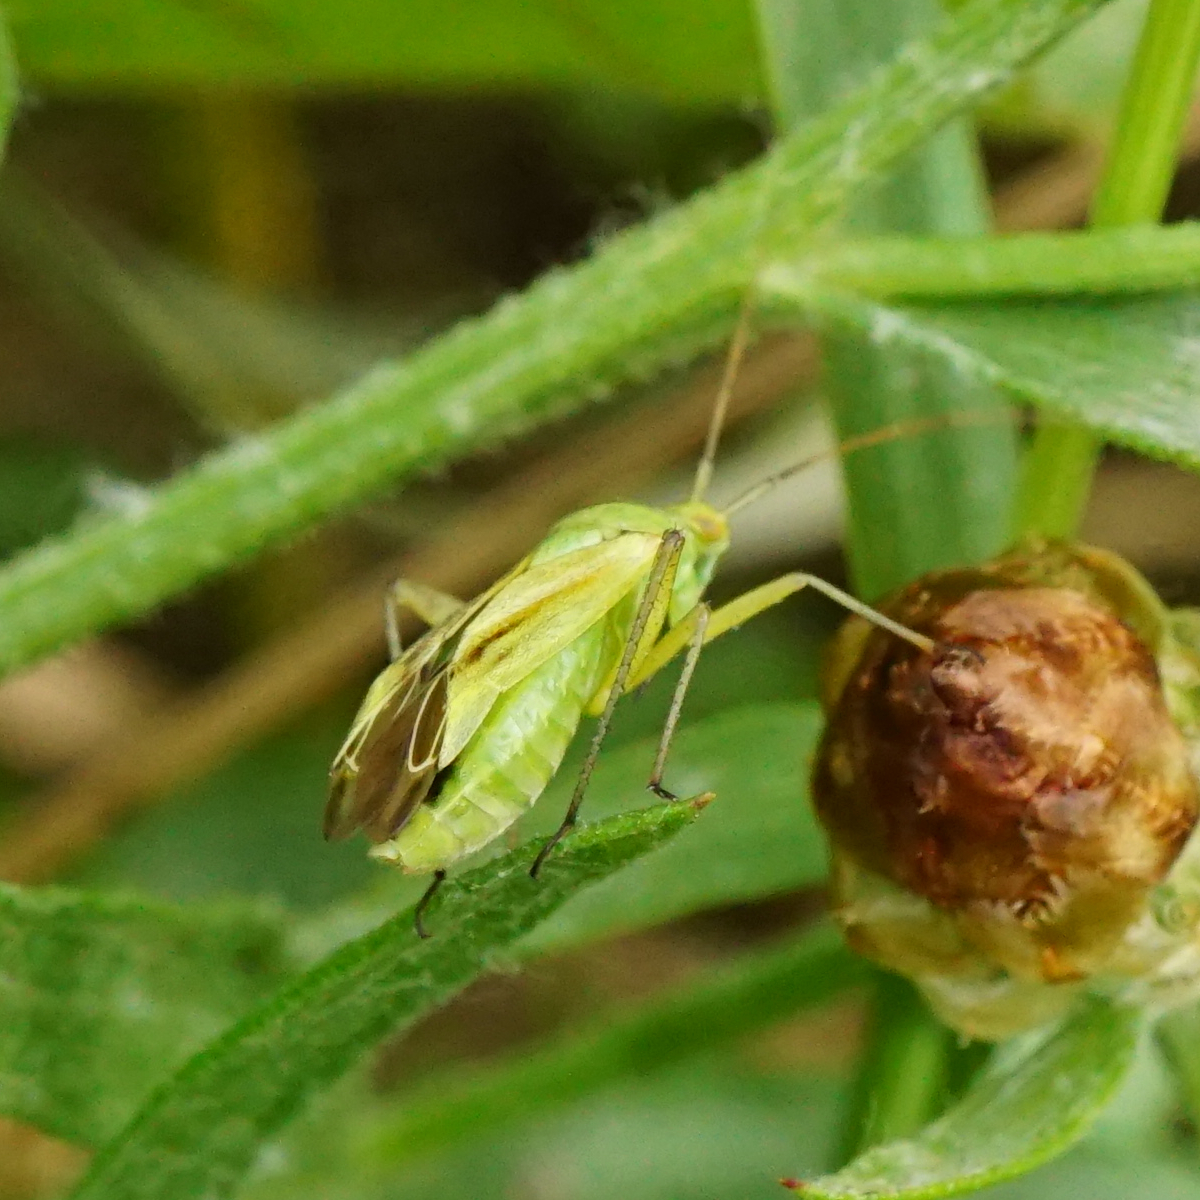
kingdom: Animalia
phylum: Arthropoda
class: Insecta
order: Hemiptera
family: Miridae
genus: Closterotomus
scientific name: Closterotomus norvegicus
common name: Plant bug
